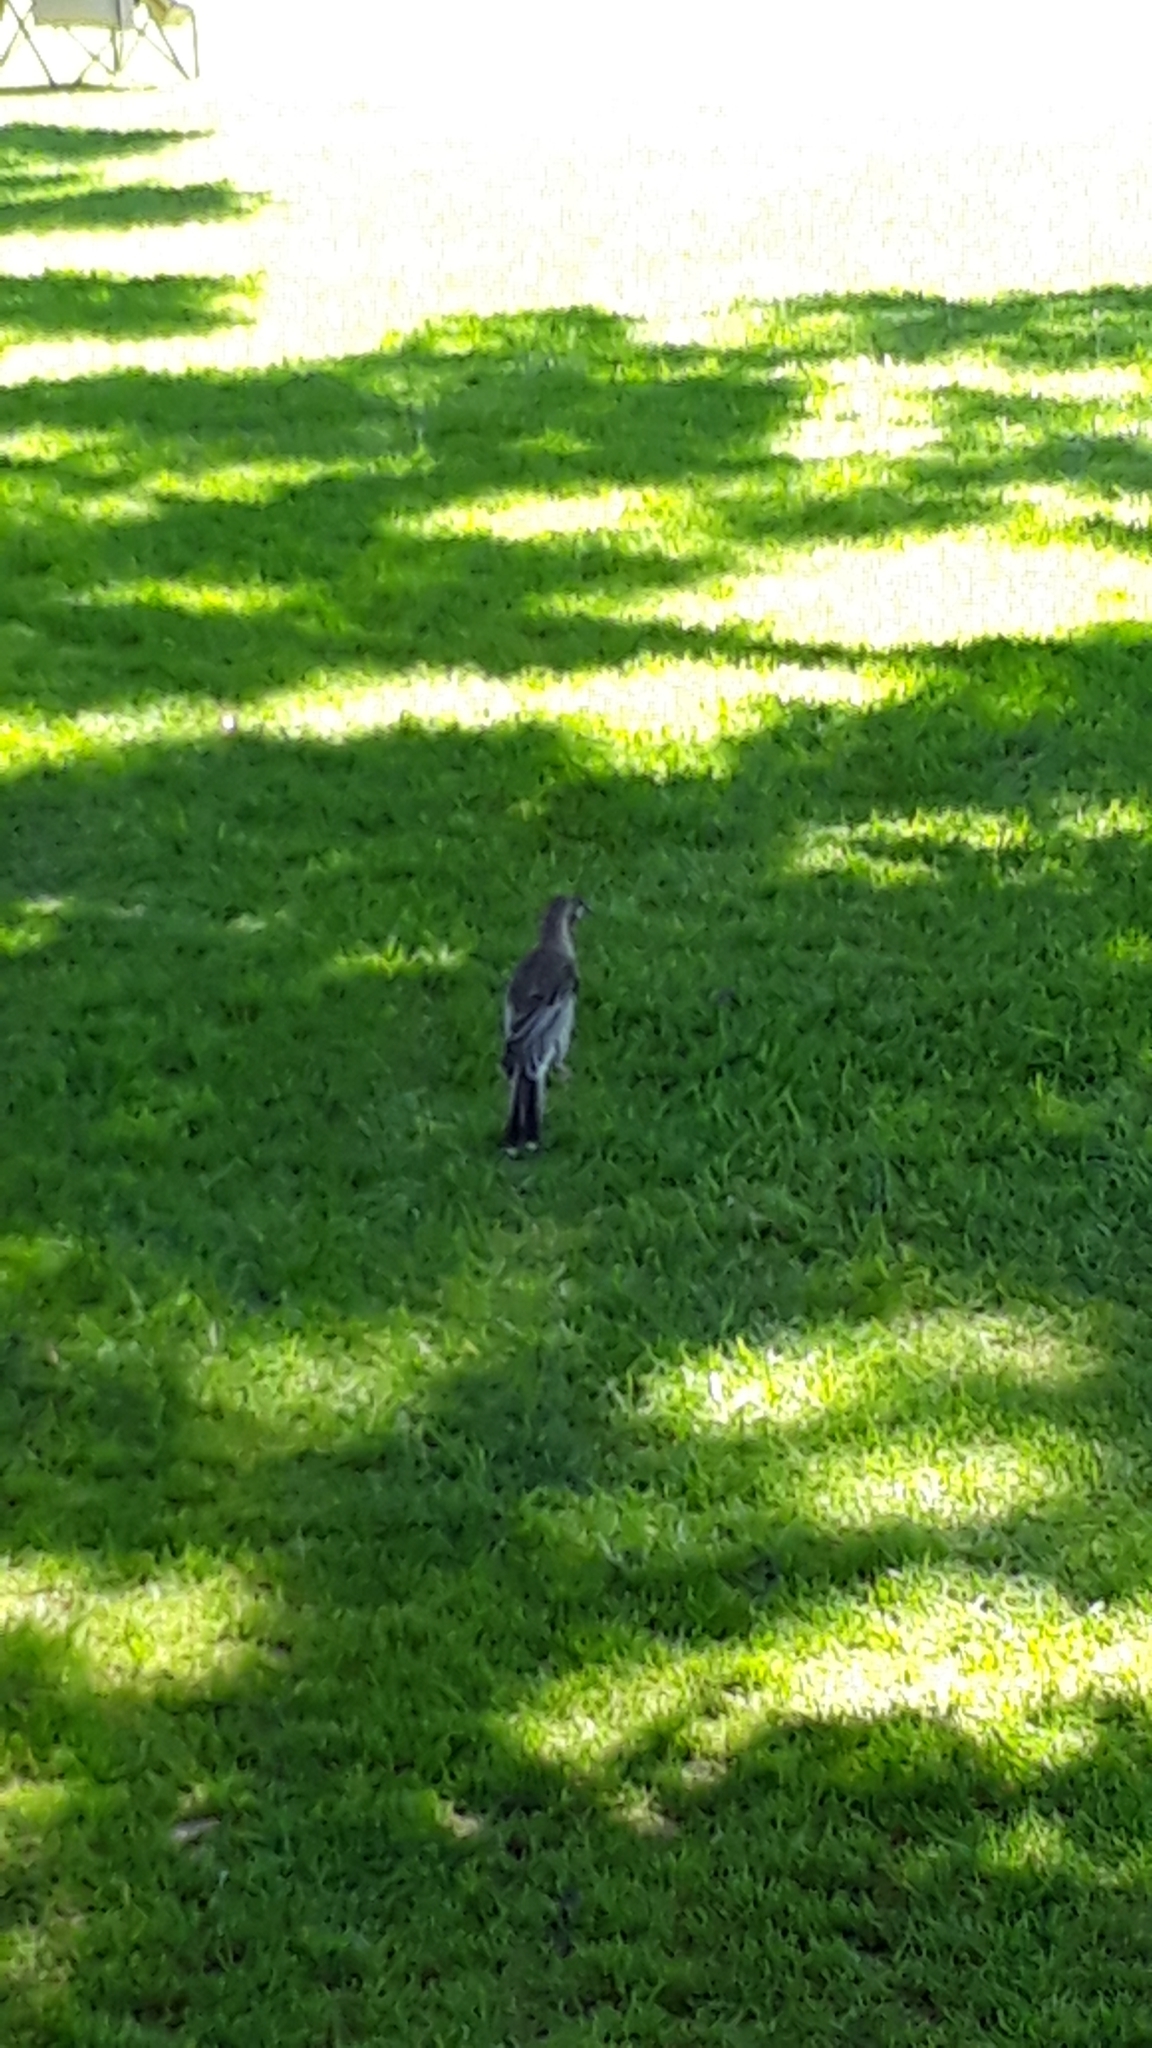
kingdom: Animalia
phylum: Chordata
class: Aves
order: Passeriformes
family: Meliphagidae
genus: Anthochaera
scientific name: Anthochaera carunculata
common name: Red wattlebird
